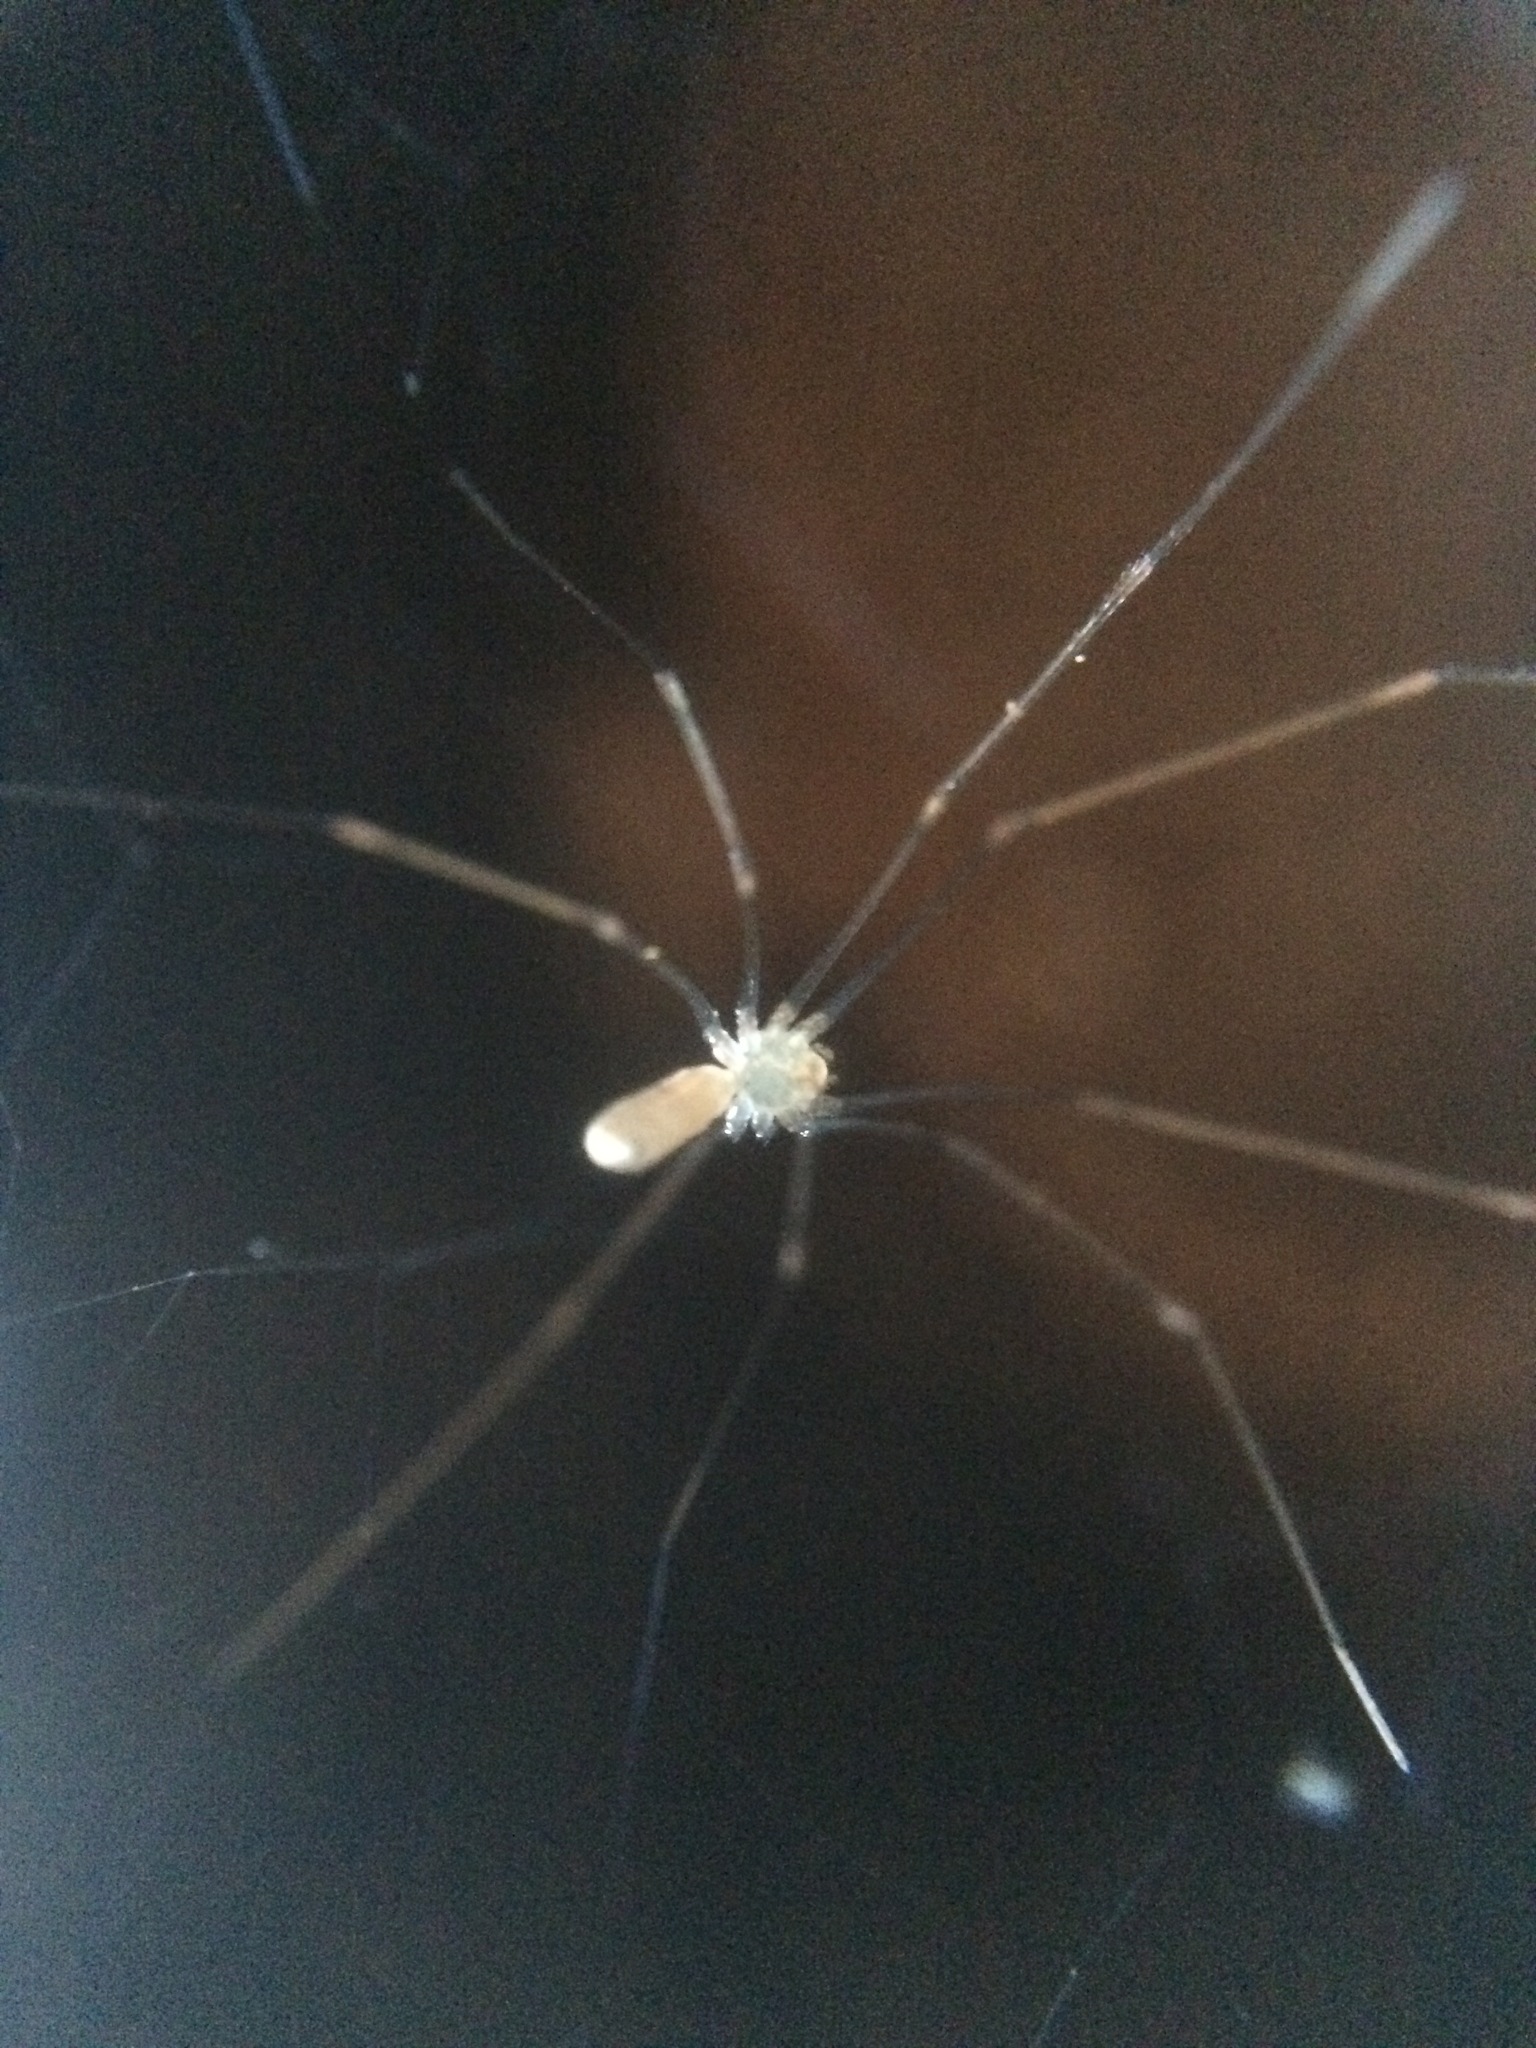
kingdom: Animalia
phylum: Arthropoda
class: Arachnida
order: Araneae
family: Pholcidae
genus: Pholcus
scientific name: Pholcus phalangioides
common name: Longbodied cellar spider
